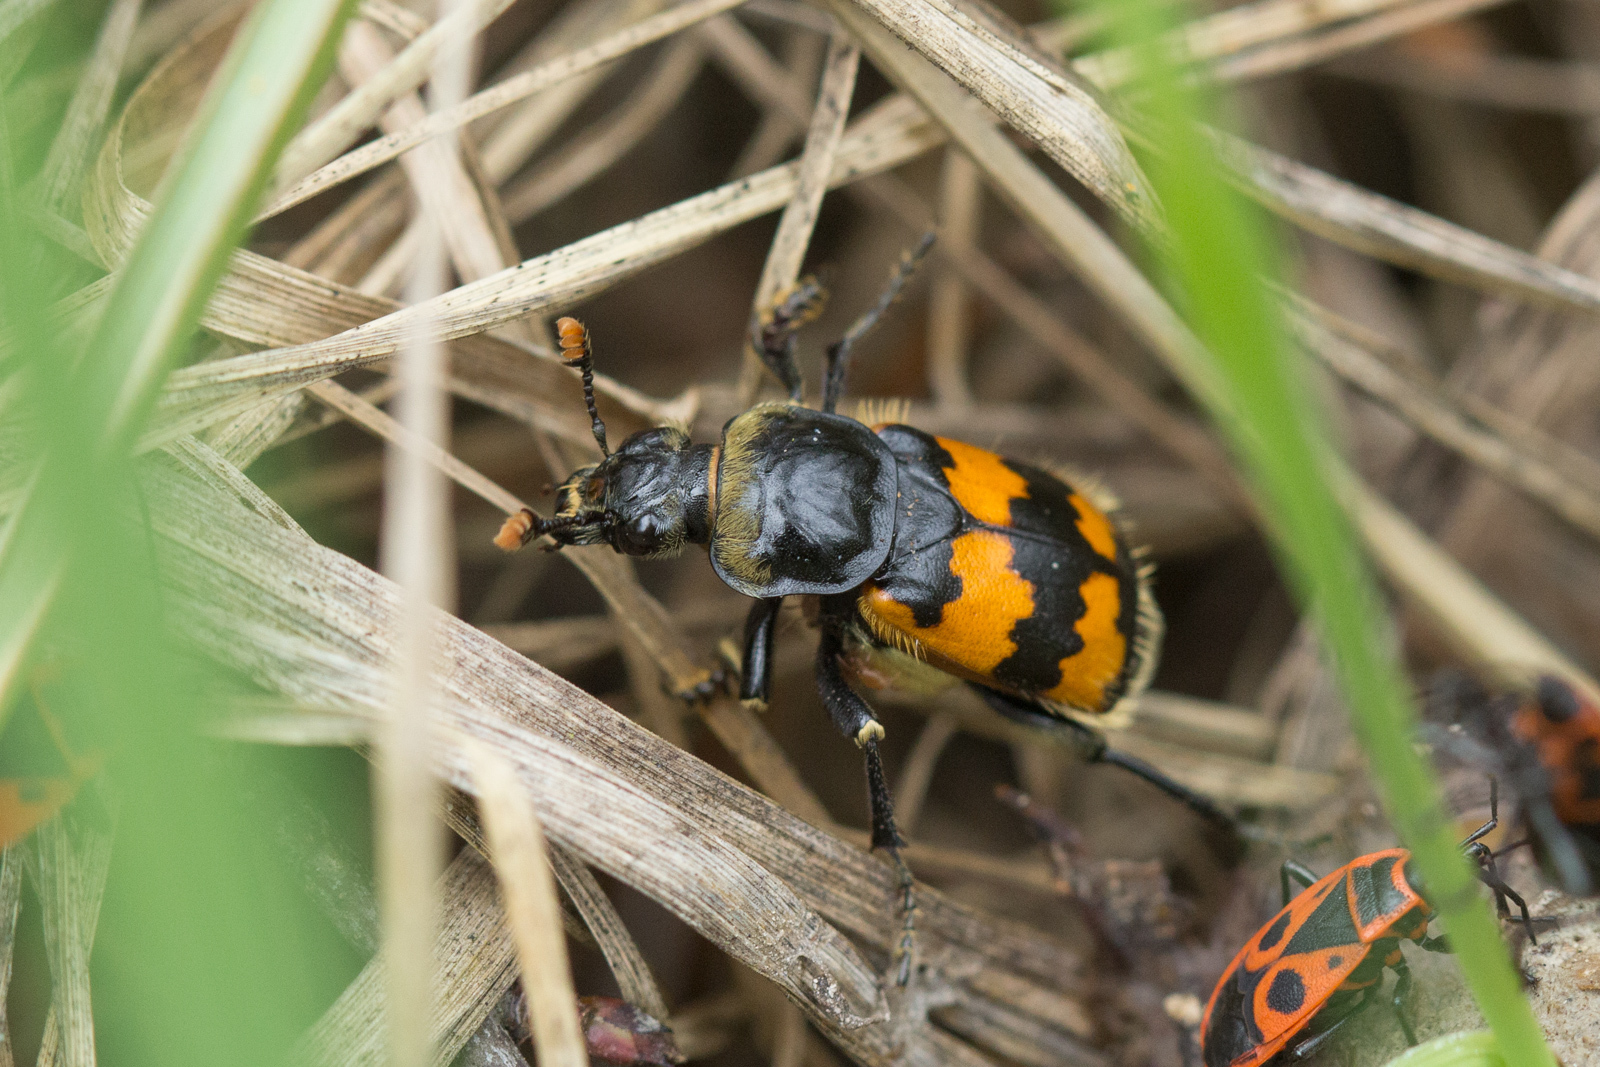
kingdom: Animalia
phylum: Arthropoda
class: Insecta
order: Coleoptera
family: Staphylinidae
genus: Nicrophorus
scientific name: Nicrophorus vespillo
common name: Common burying beetle
